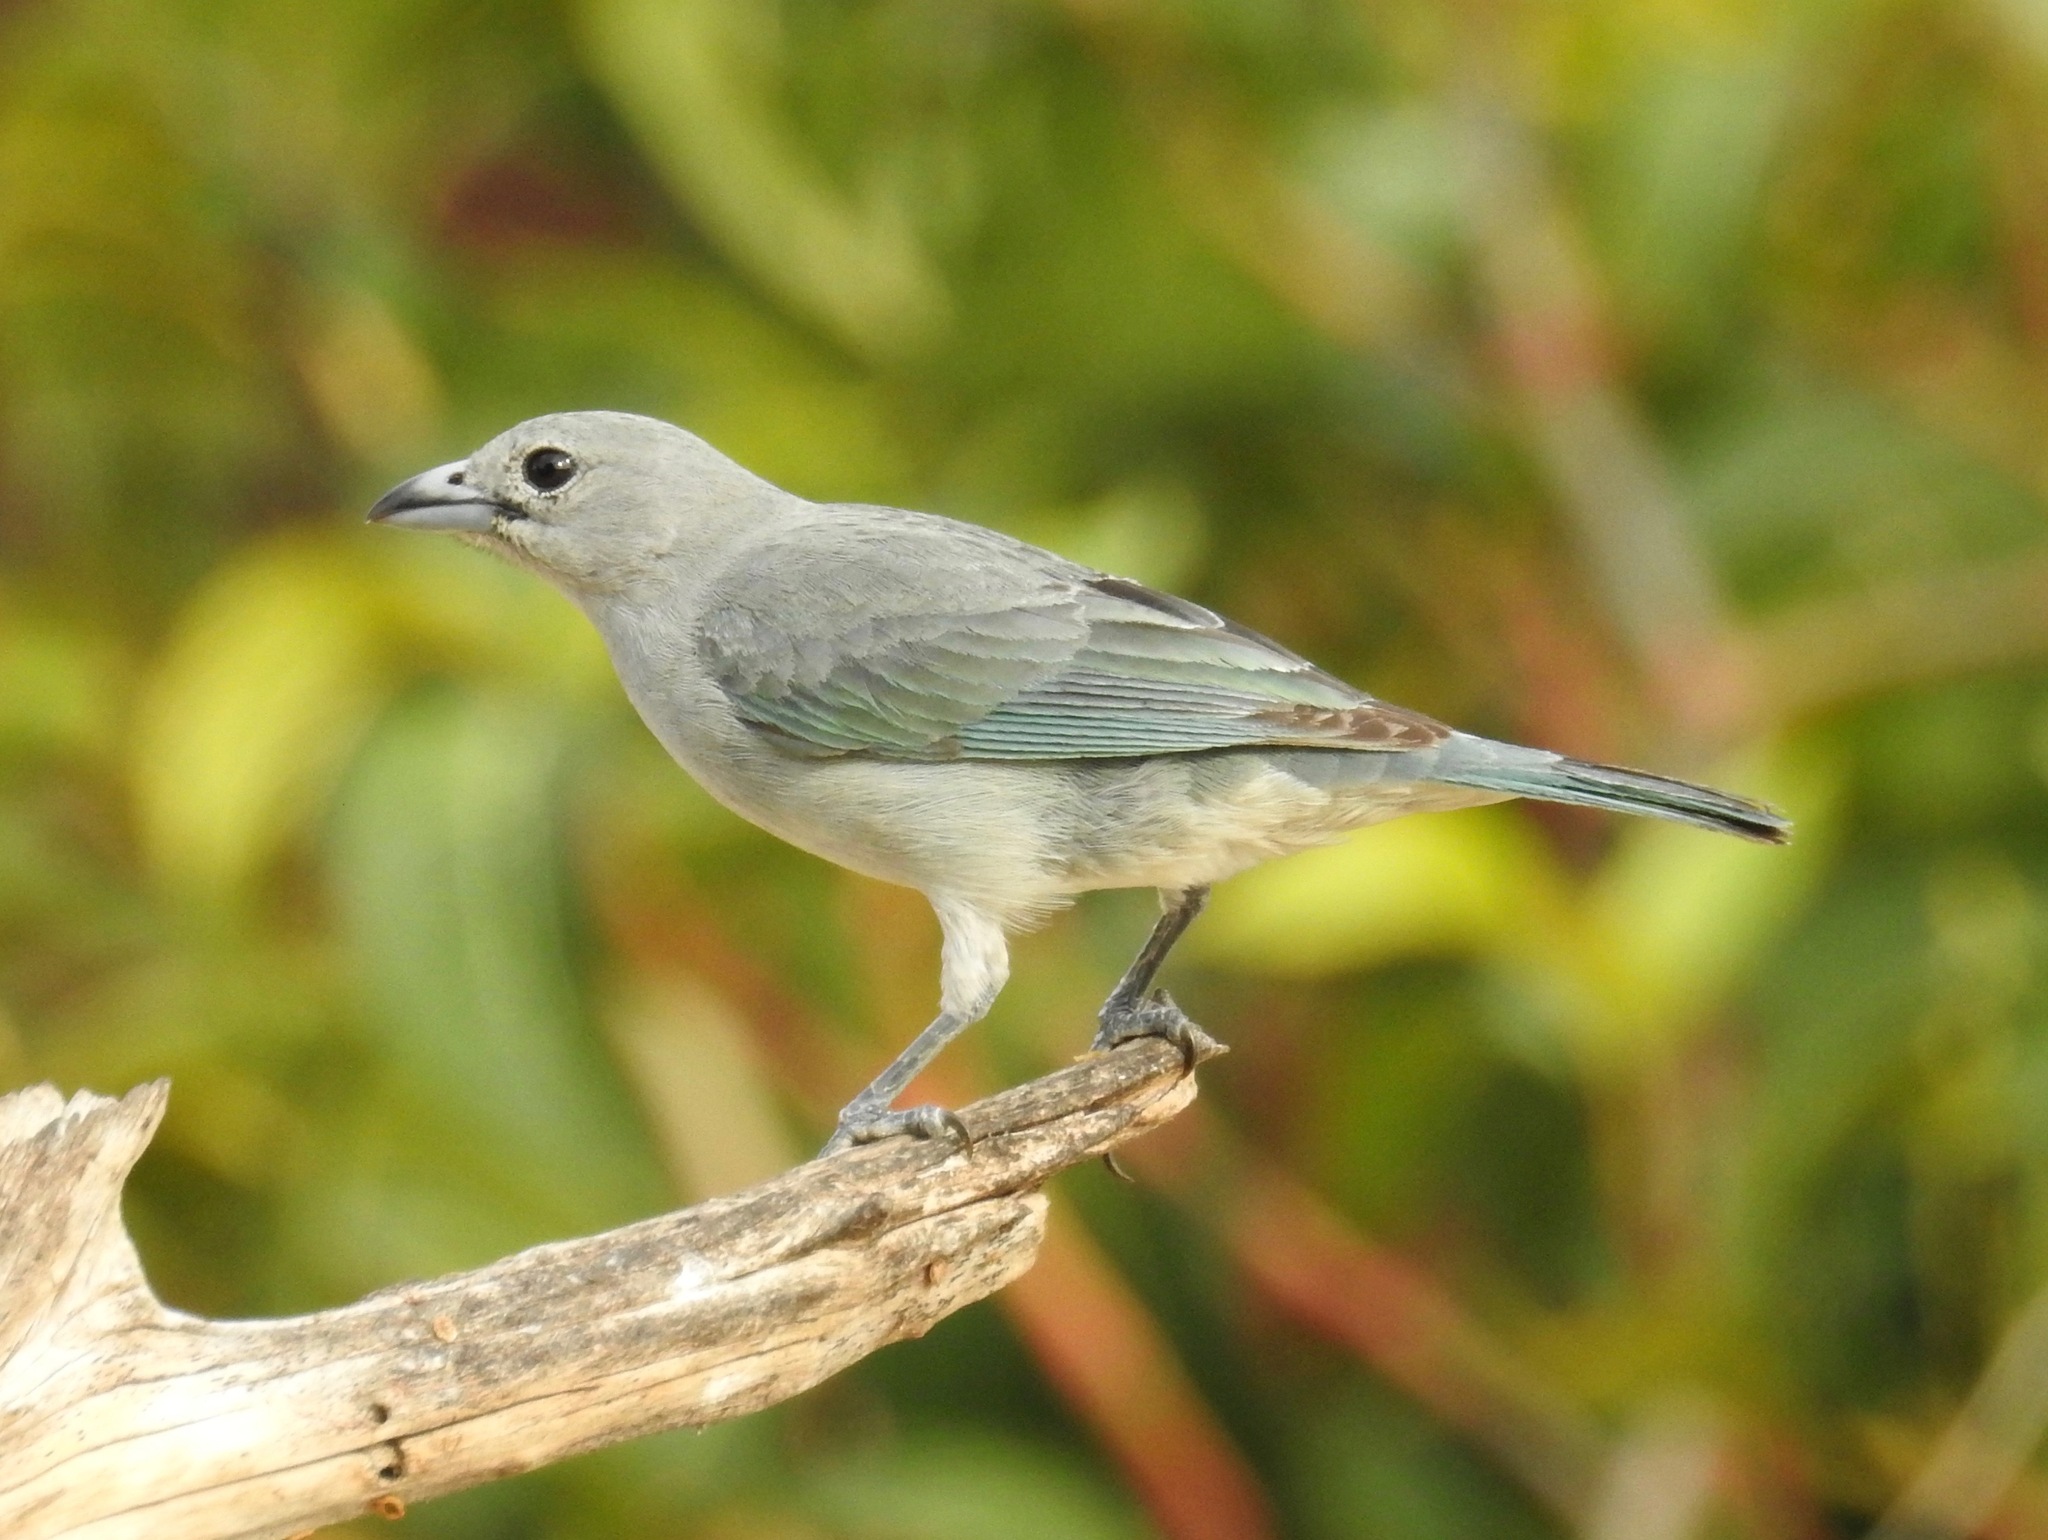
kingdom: Animalia
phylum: Chordata
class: Aves
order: Passeriformes
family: Thraupidae
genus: Thraupis
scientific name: Thraupis sayaca
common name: Sayaca tanager
